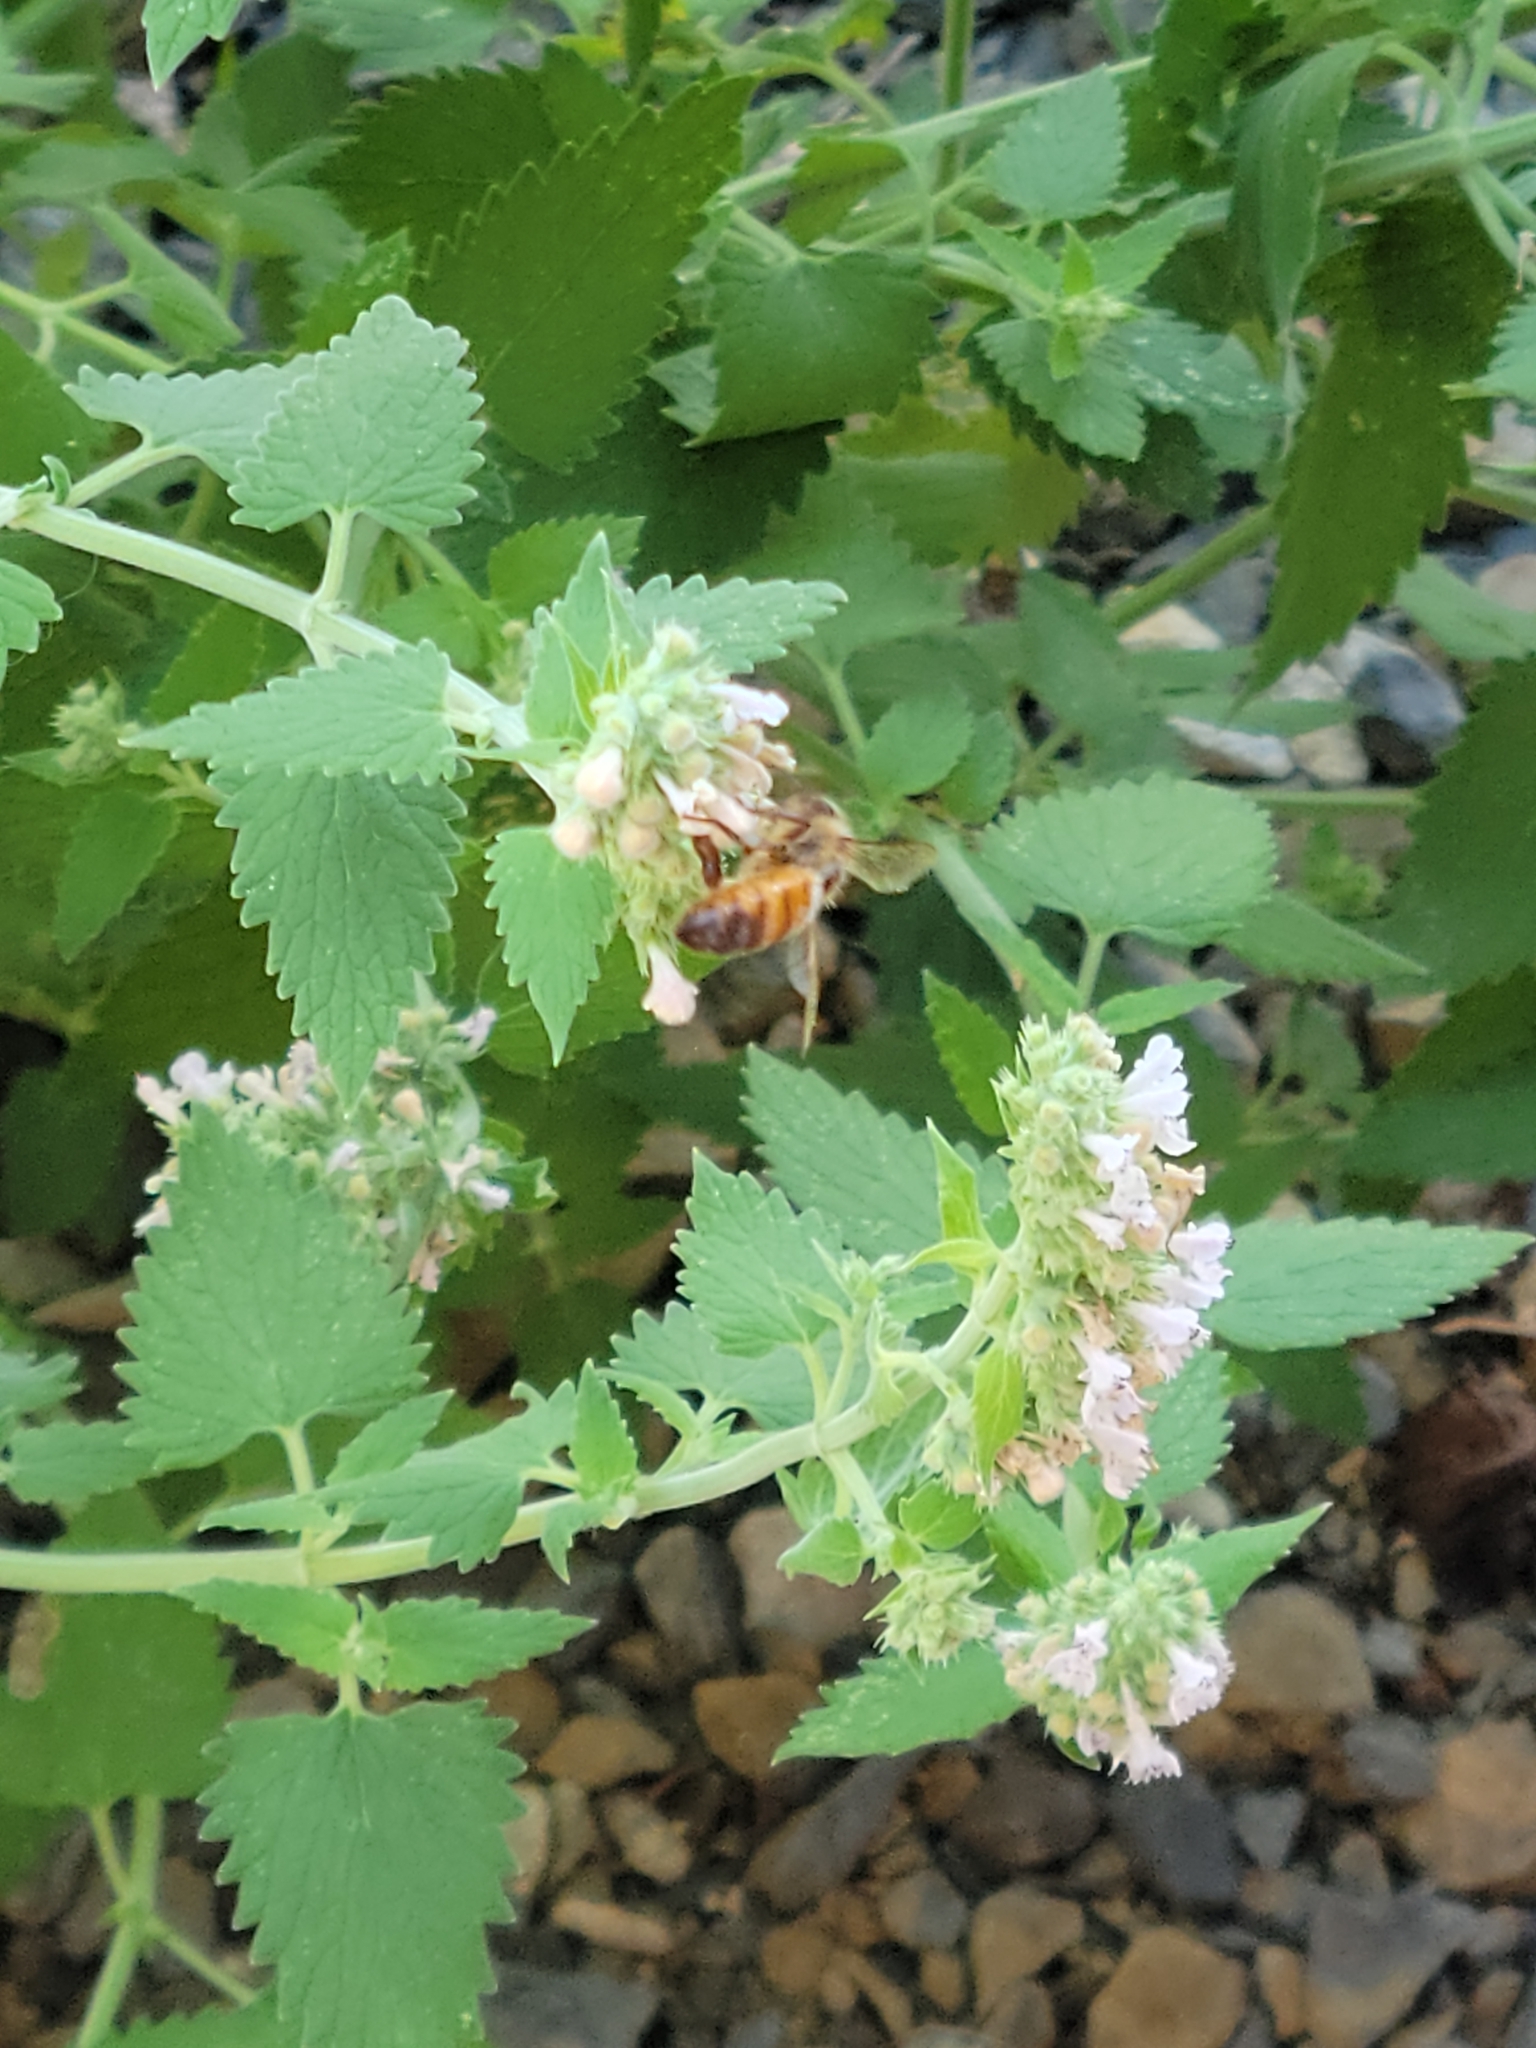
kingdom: Animalia
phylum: Arthropoda
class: Insecta
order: Hymenoptera
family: Apidae
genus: Apis
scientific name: Apis mellifera
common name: Honey bee
